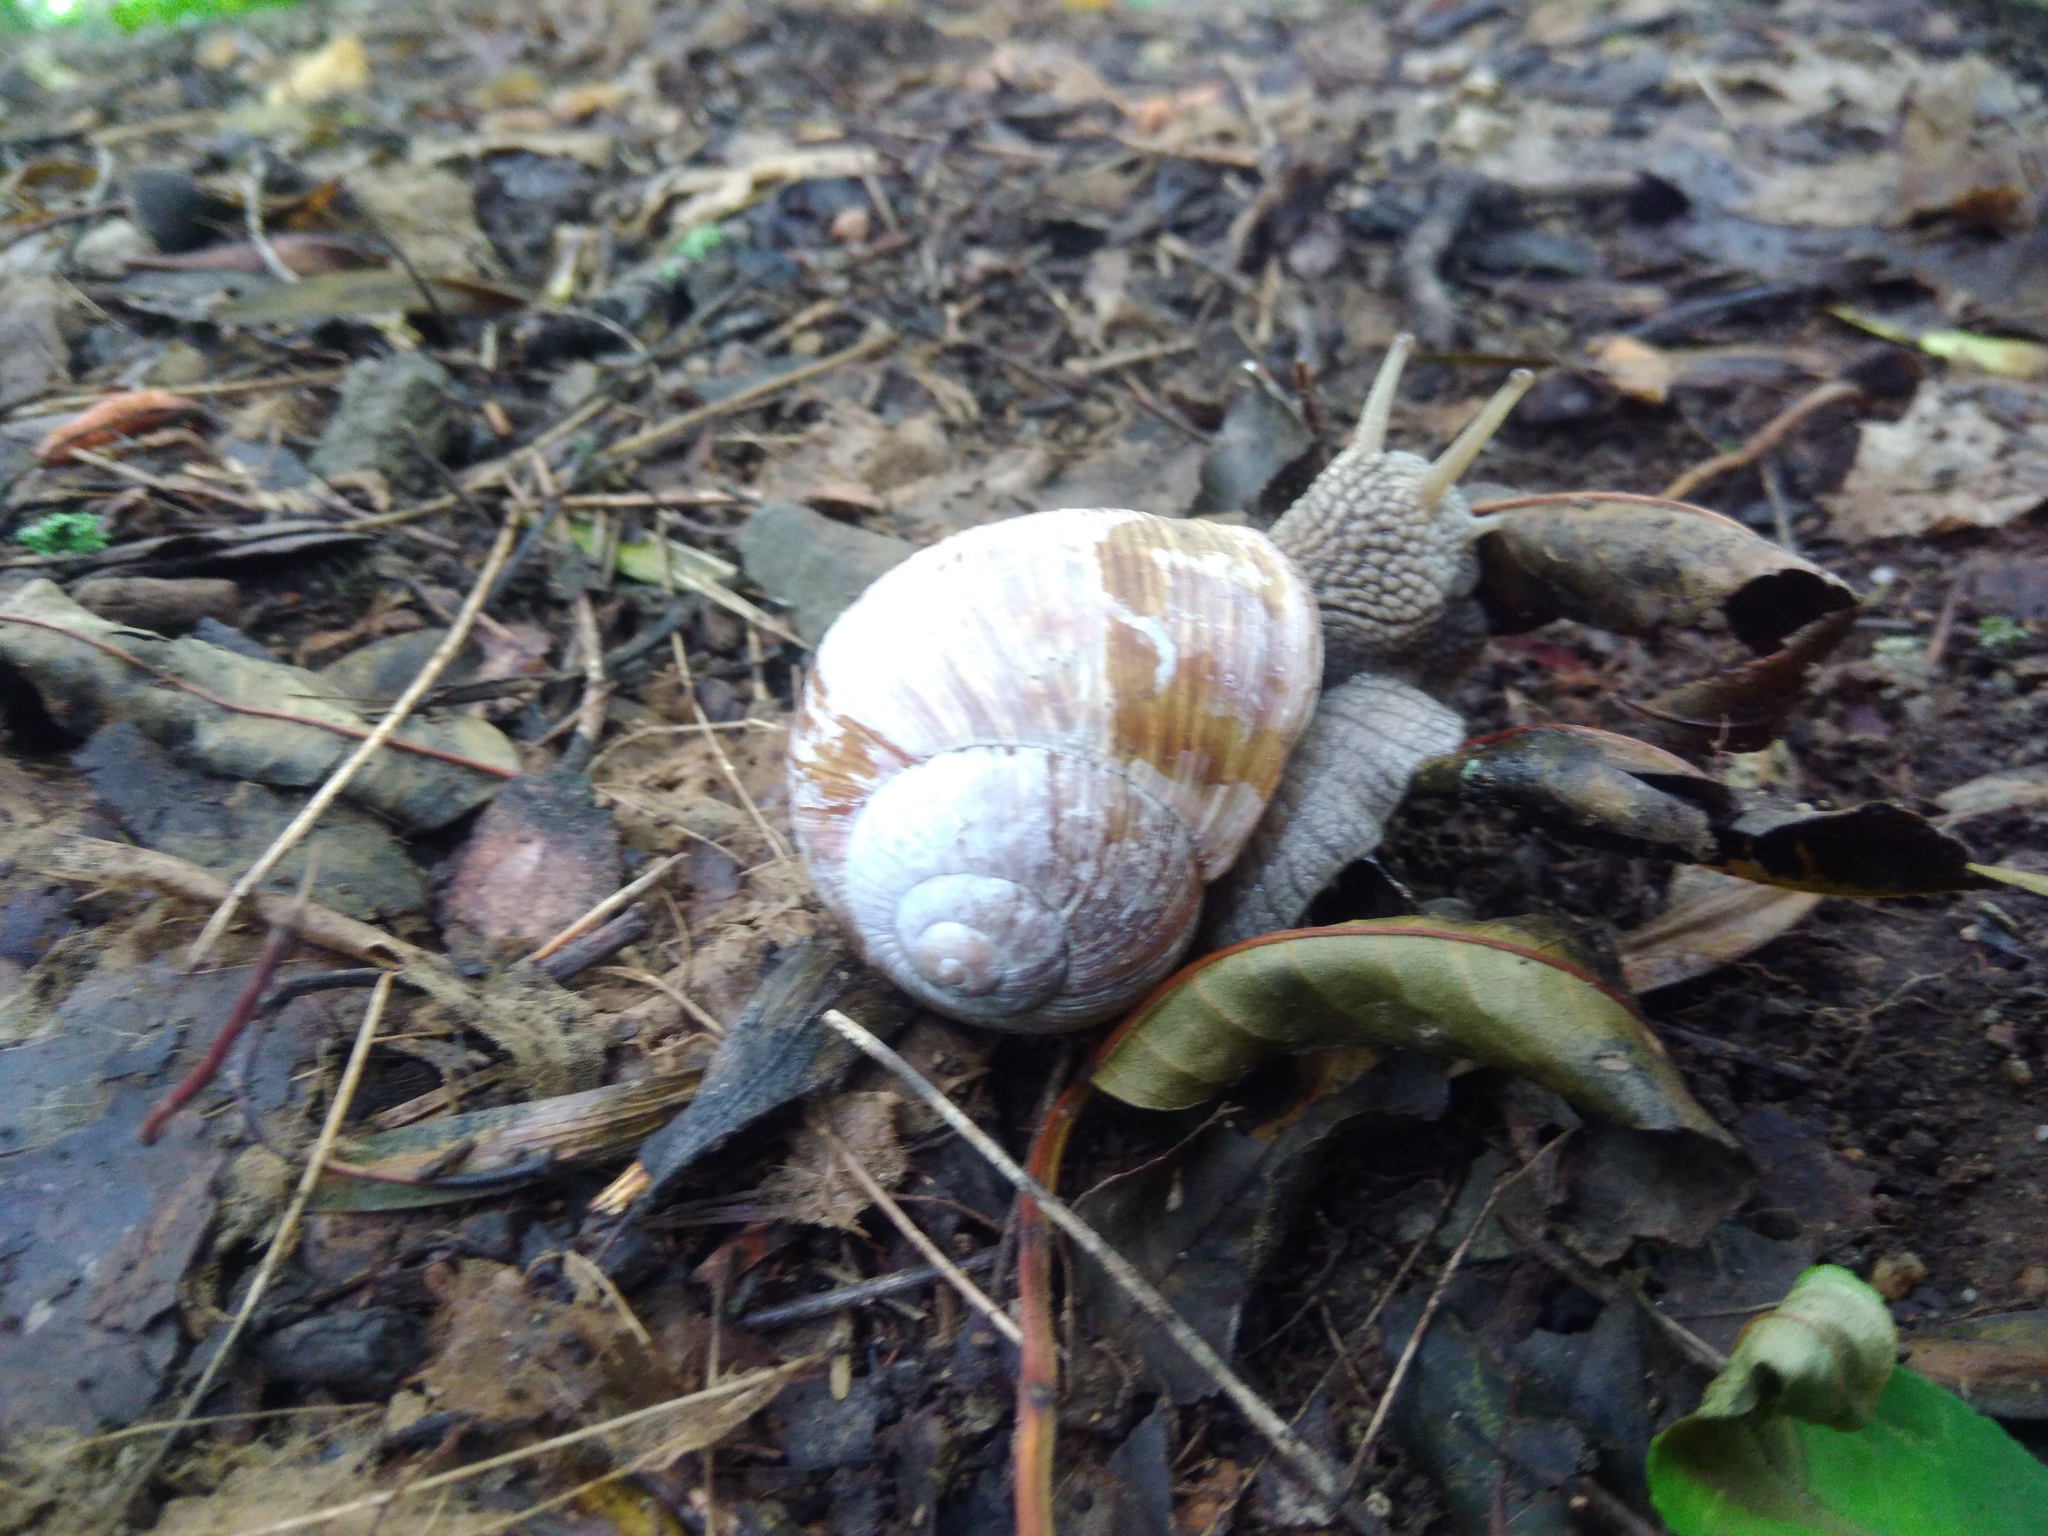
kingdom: Animalia
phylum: Mollusca
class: Gastropoda
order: Stylommatophora
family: Helicidae
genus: Helix
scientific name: Helix pomatia
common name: Roman snail
